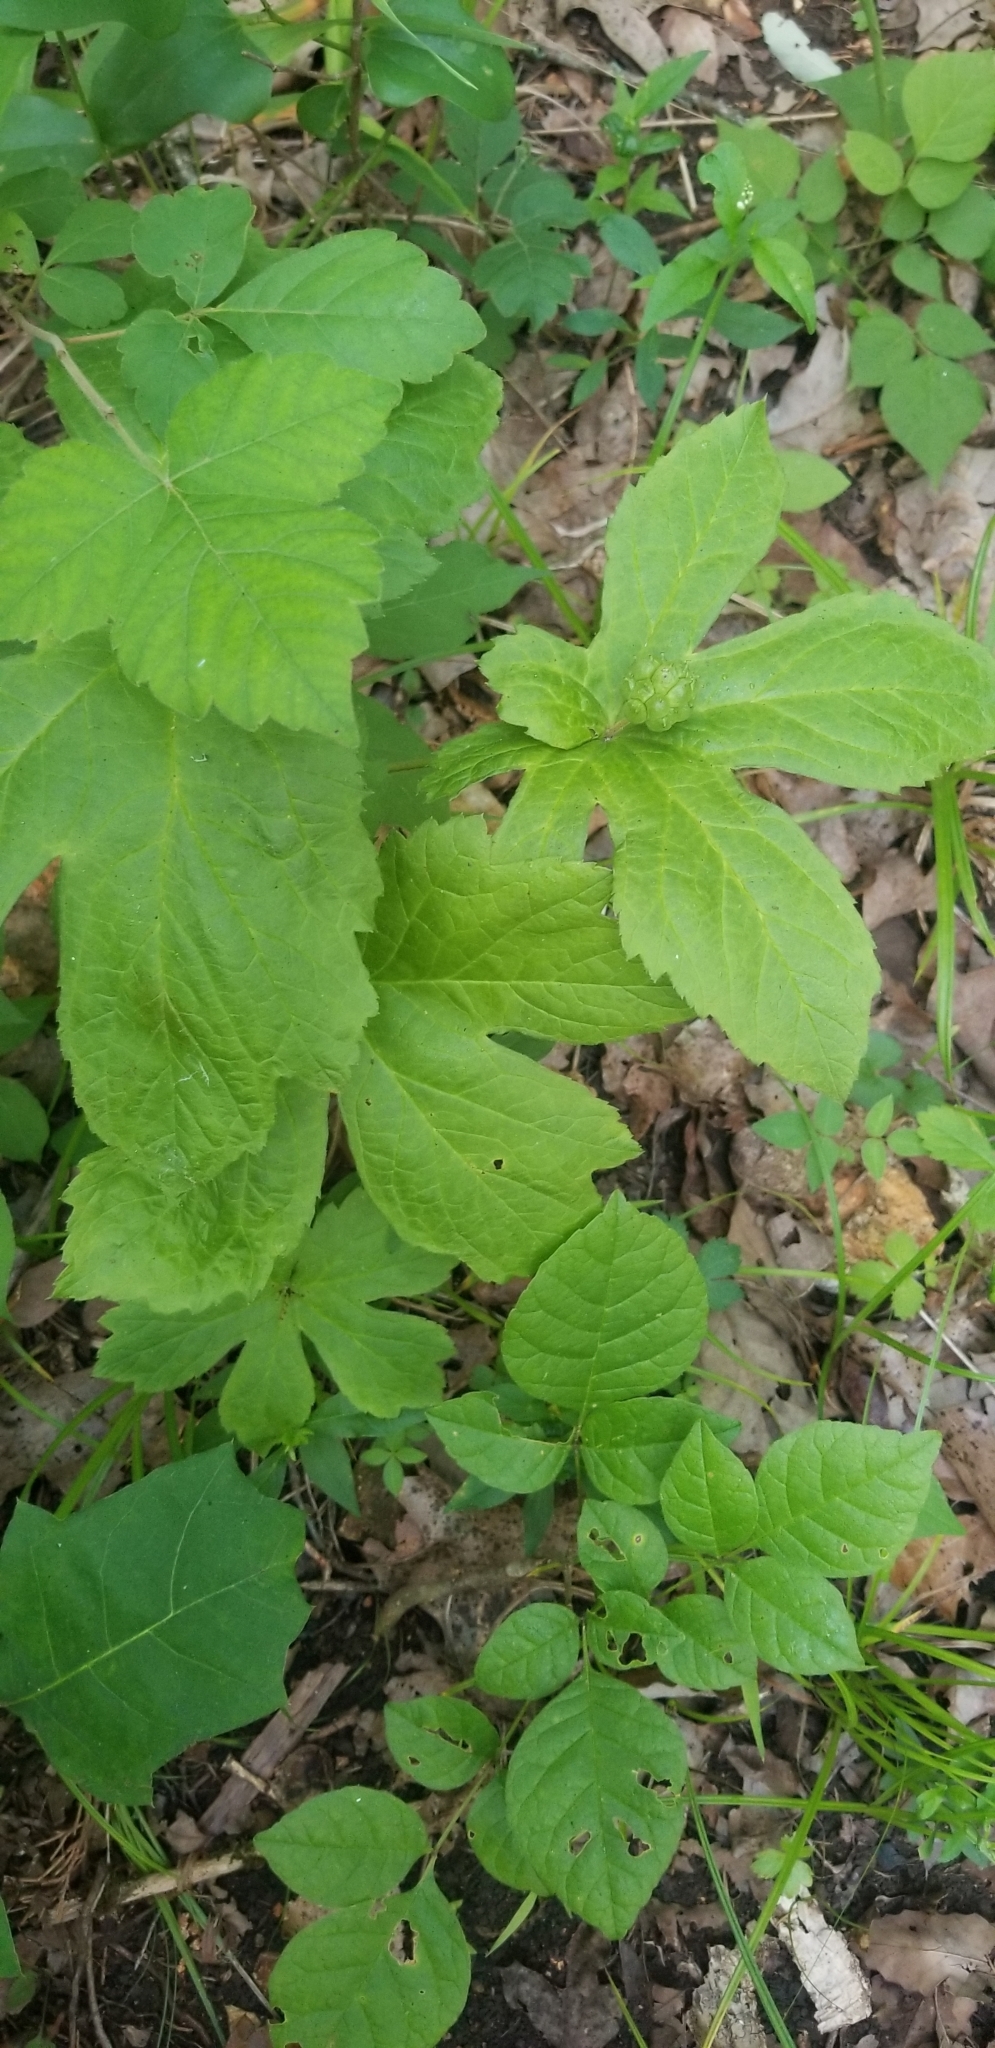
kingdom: Plantae
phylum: Tracheophyta
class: Magnoliopsida
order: Ranunculales
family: Ranunculaceae
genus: Hydrastis
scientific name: Hydrastis canadensis
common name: Goldenseal
